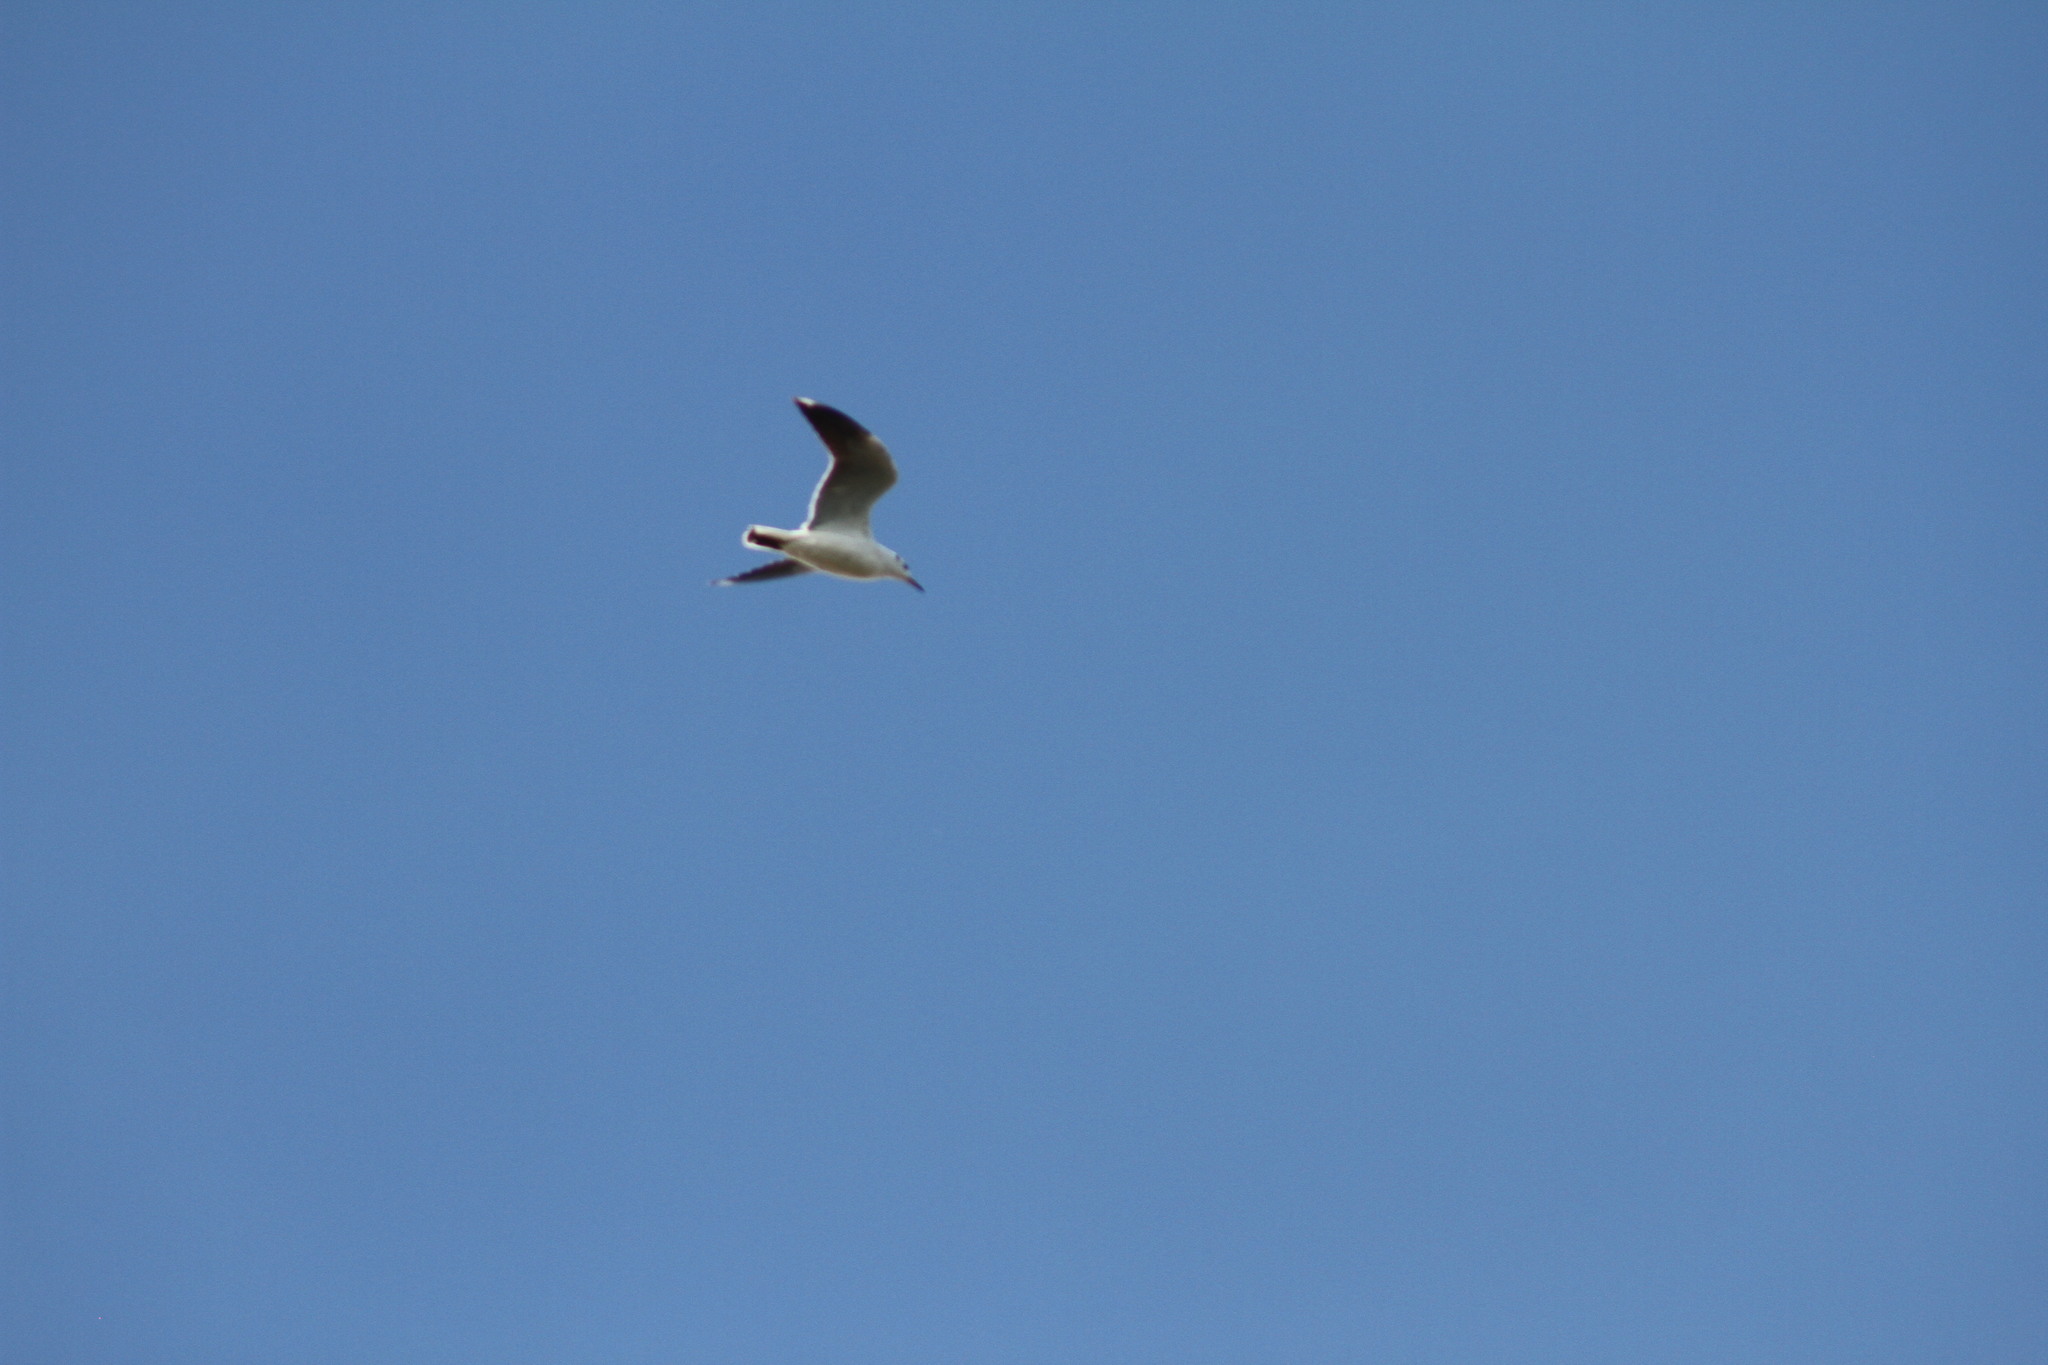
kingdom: Animalia
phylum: Chordata
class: Aves
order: Charadriiformes
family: Laridae
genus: Chroicocephalus
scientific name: Chroicocephalus maculipennis
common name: Brown-hooded gull
